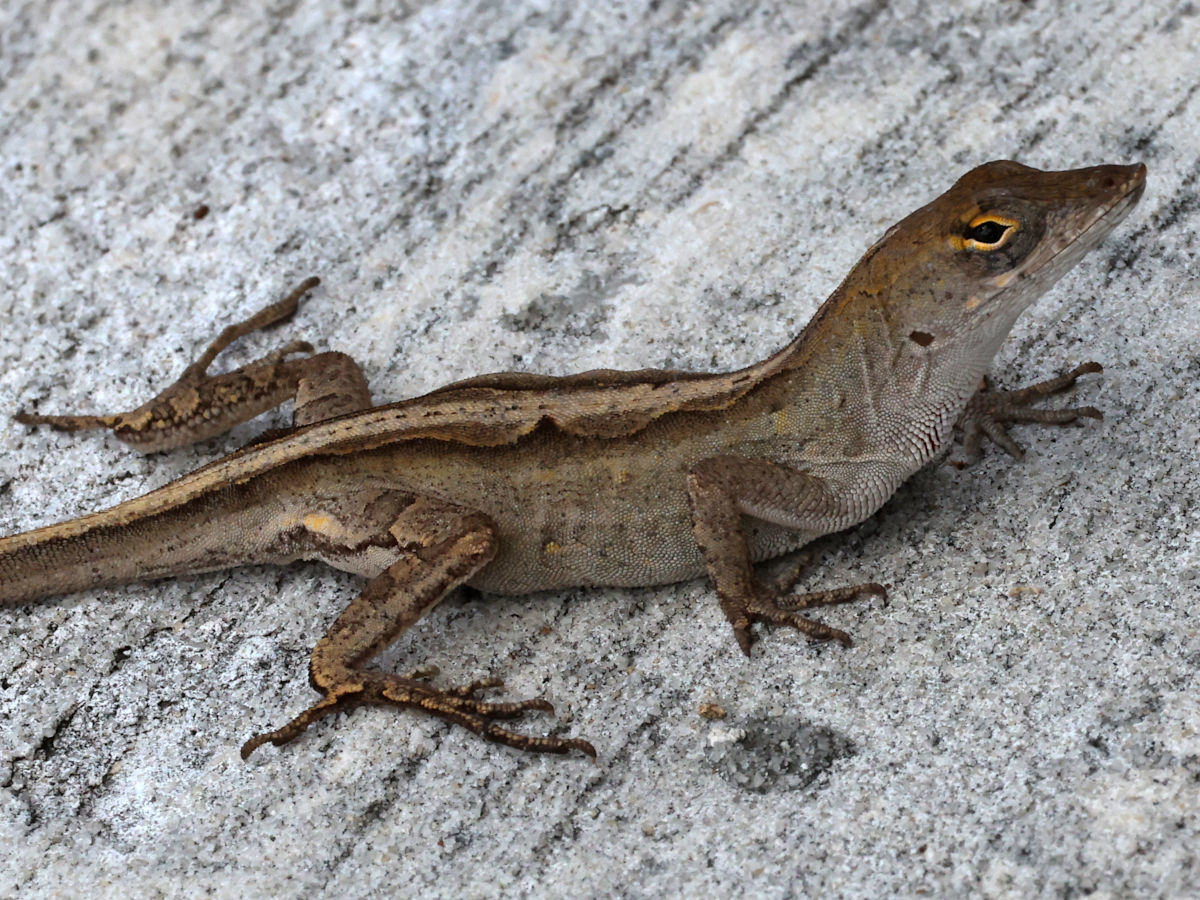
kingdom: Animalia
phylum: Chordata
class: Squamata
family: Dactyloidae
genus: Anolis
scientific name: Anolis sagrei
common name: Brown anole
